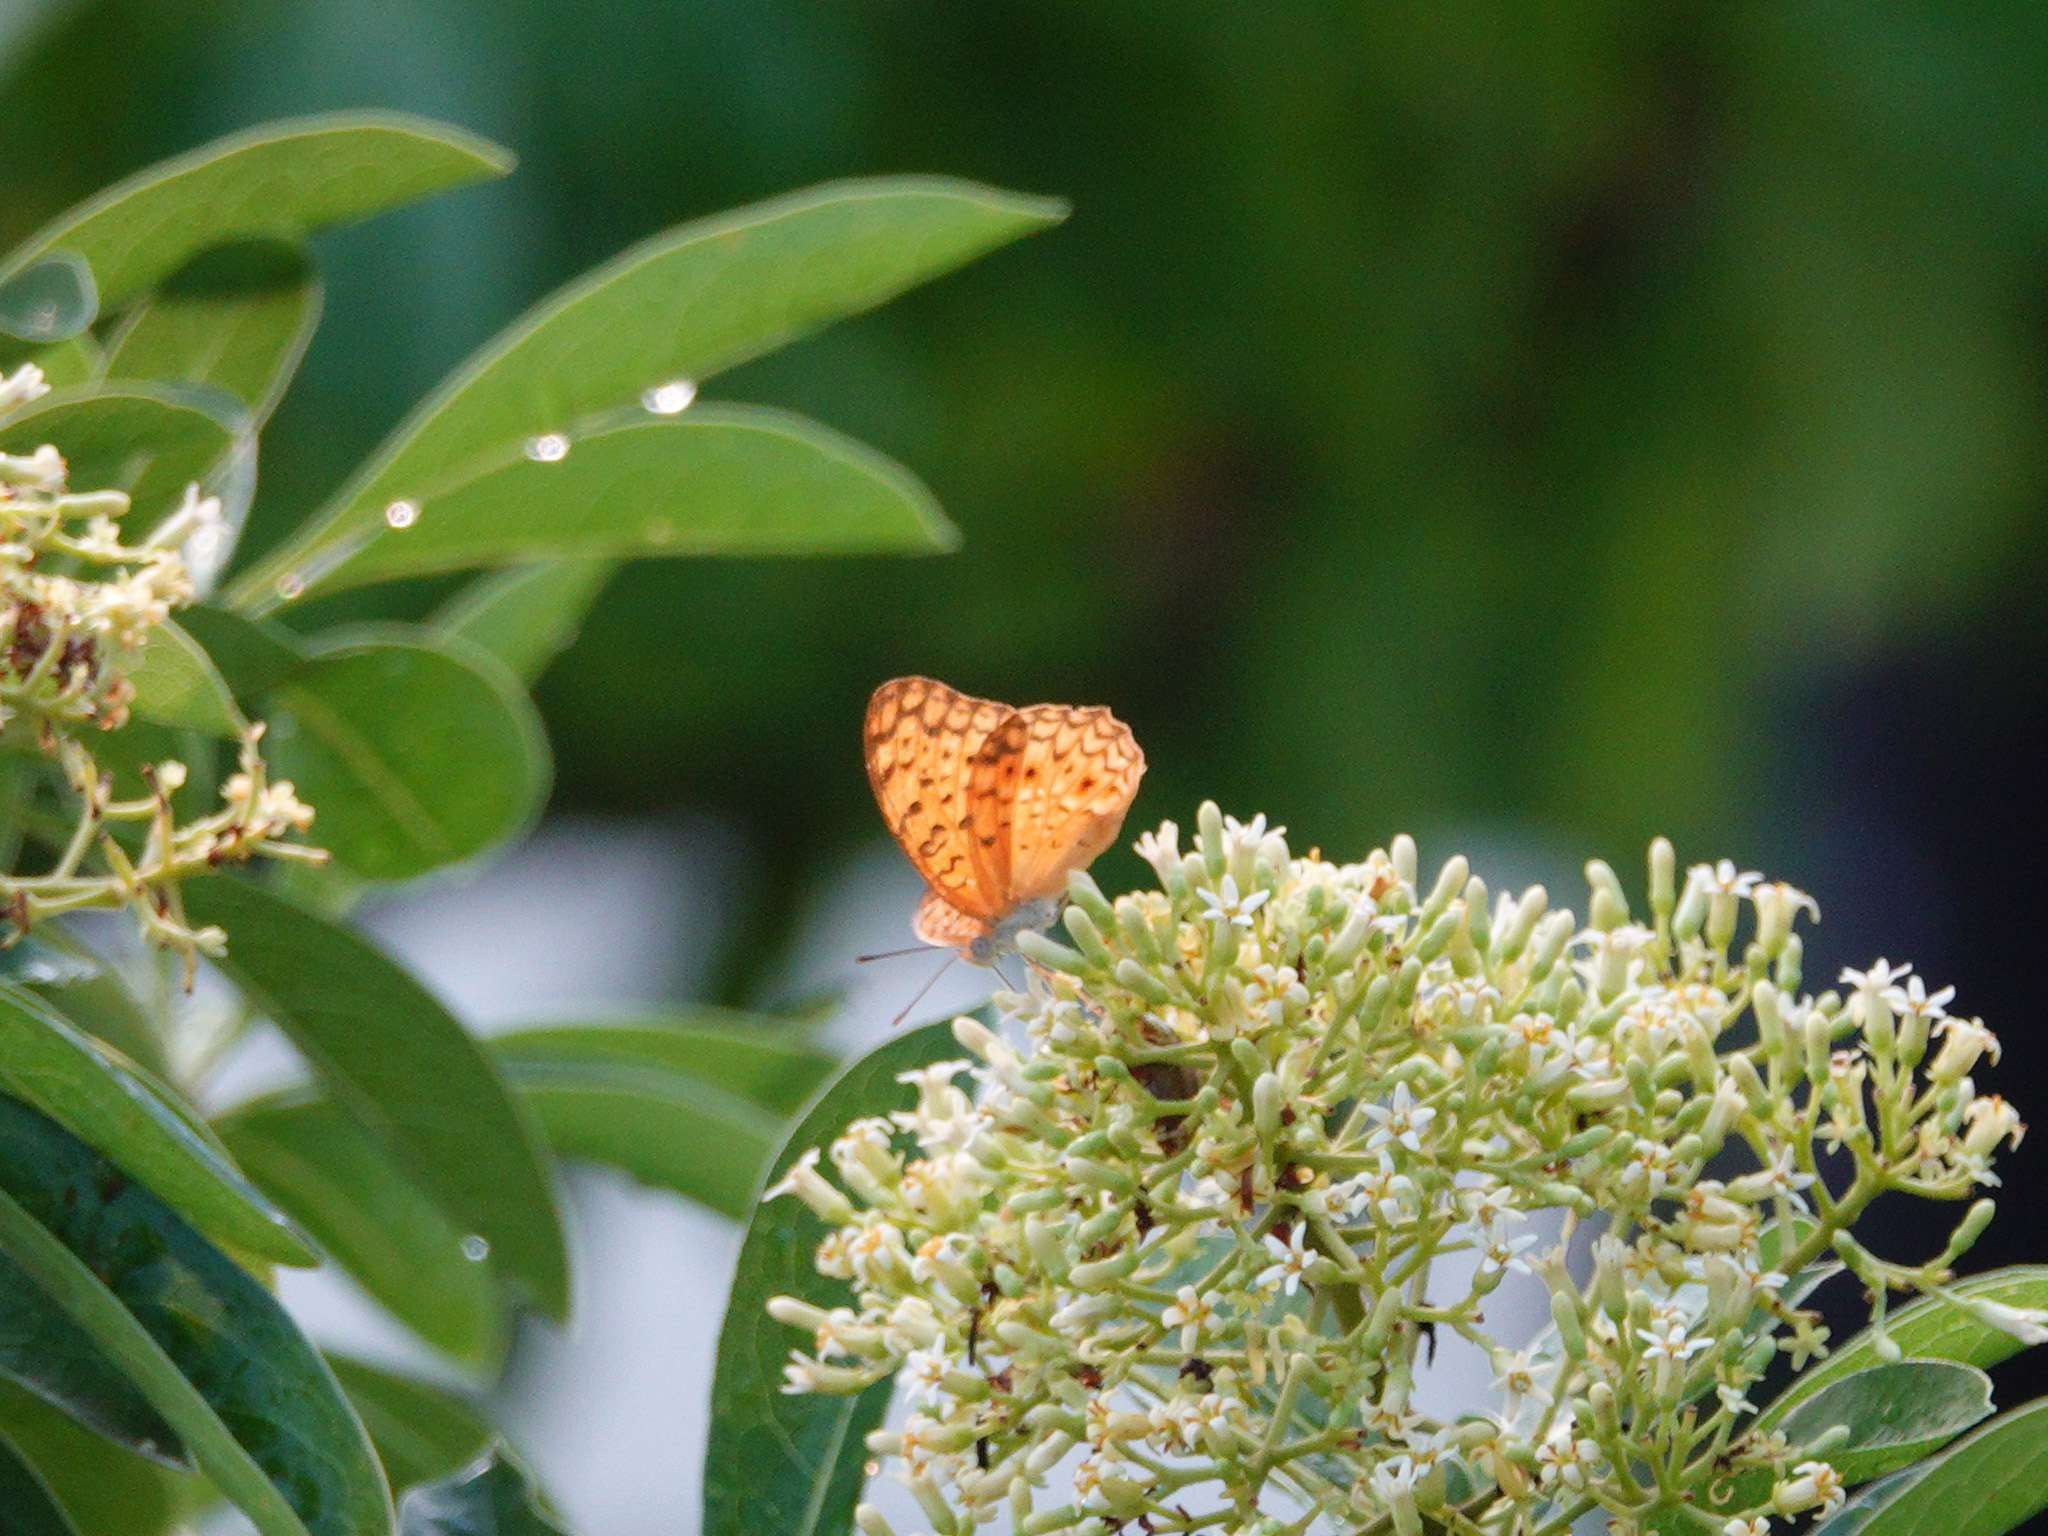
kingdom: Animalia
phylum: Arthropoda
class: Insecta
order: Lepidoptera
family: Nymphalidae
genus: Phalanta
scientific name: Phalanta phalantha
